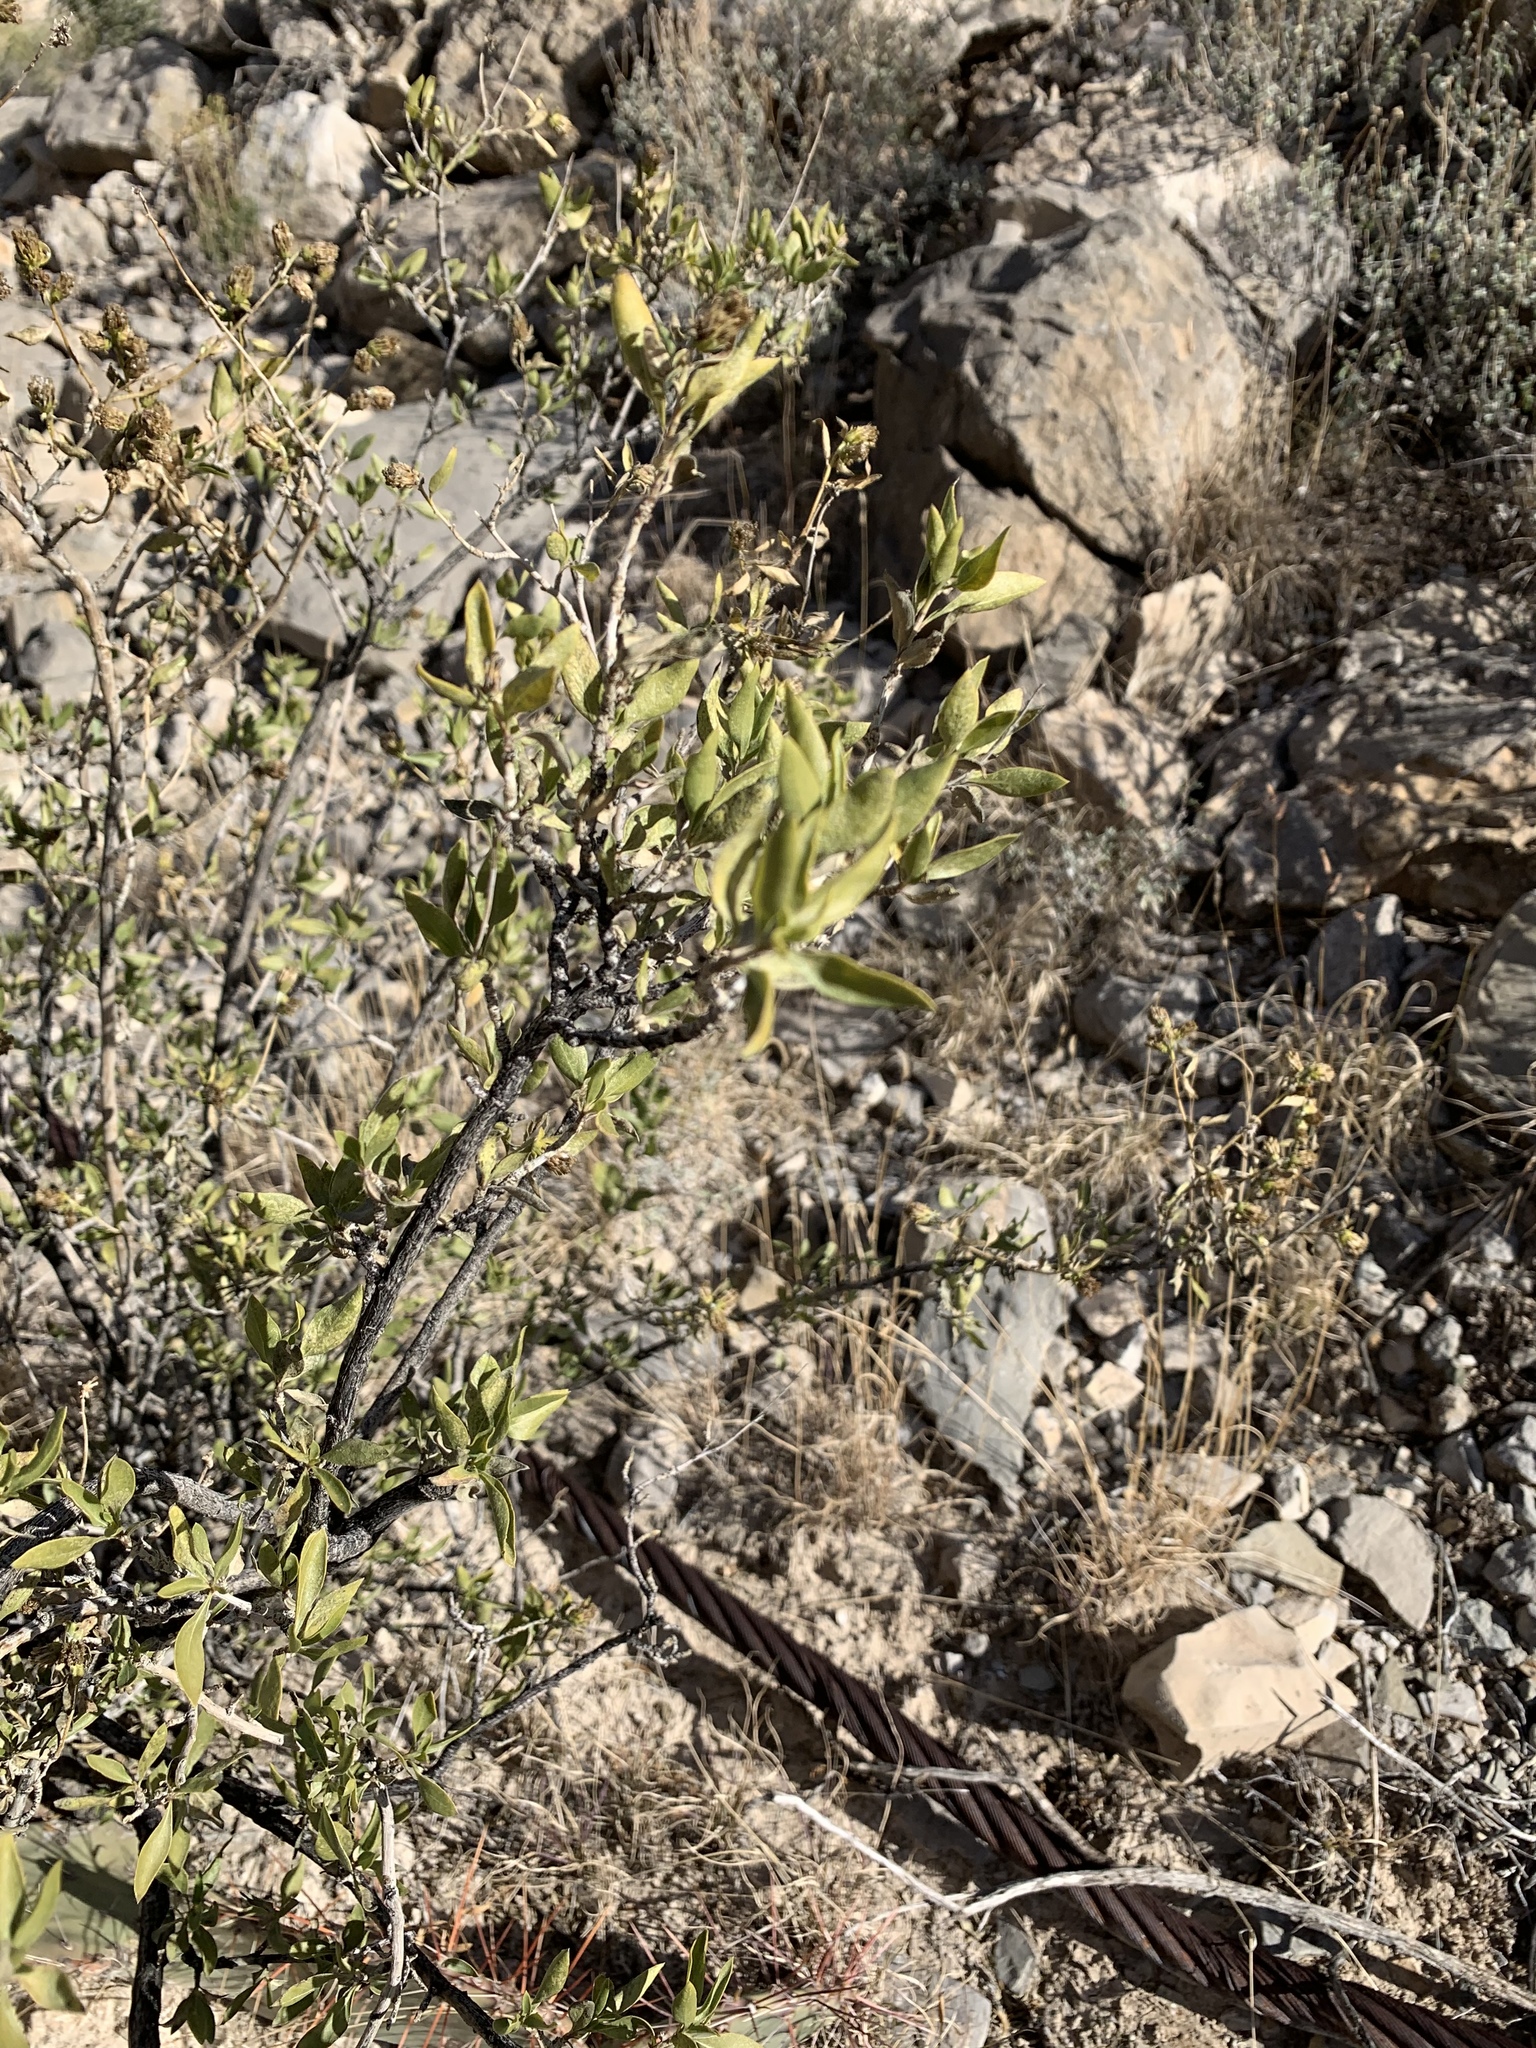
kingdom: Plantae
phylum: Tracheophyta
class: Magnoliopsida
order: Asterales
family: Asteraceae
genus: Flourensia
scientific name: Flourensia cernua
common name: Varnishbush
